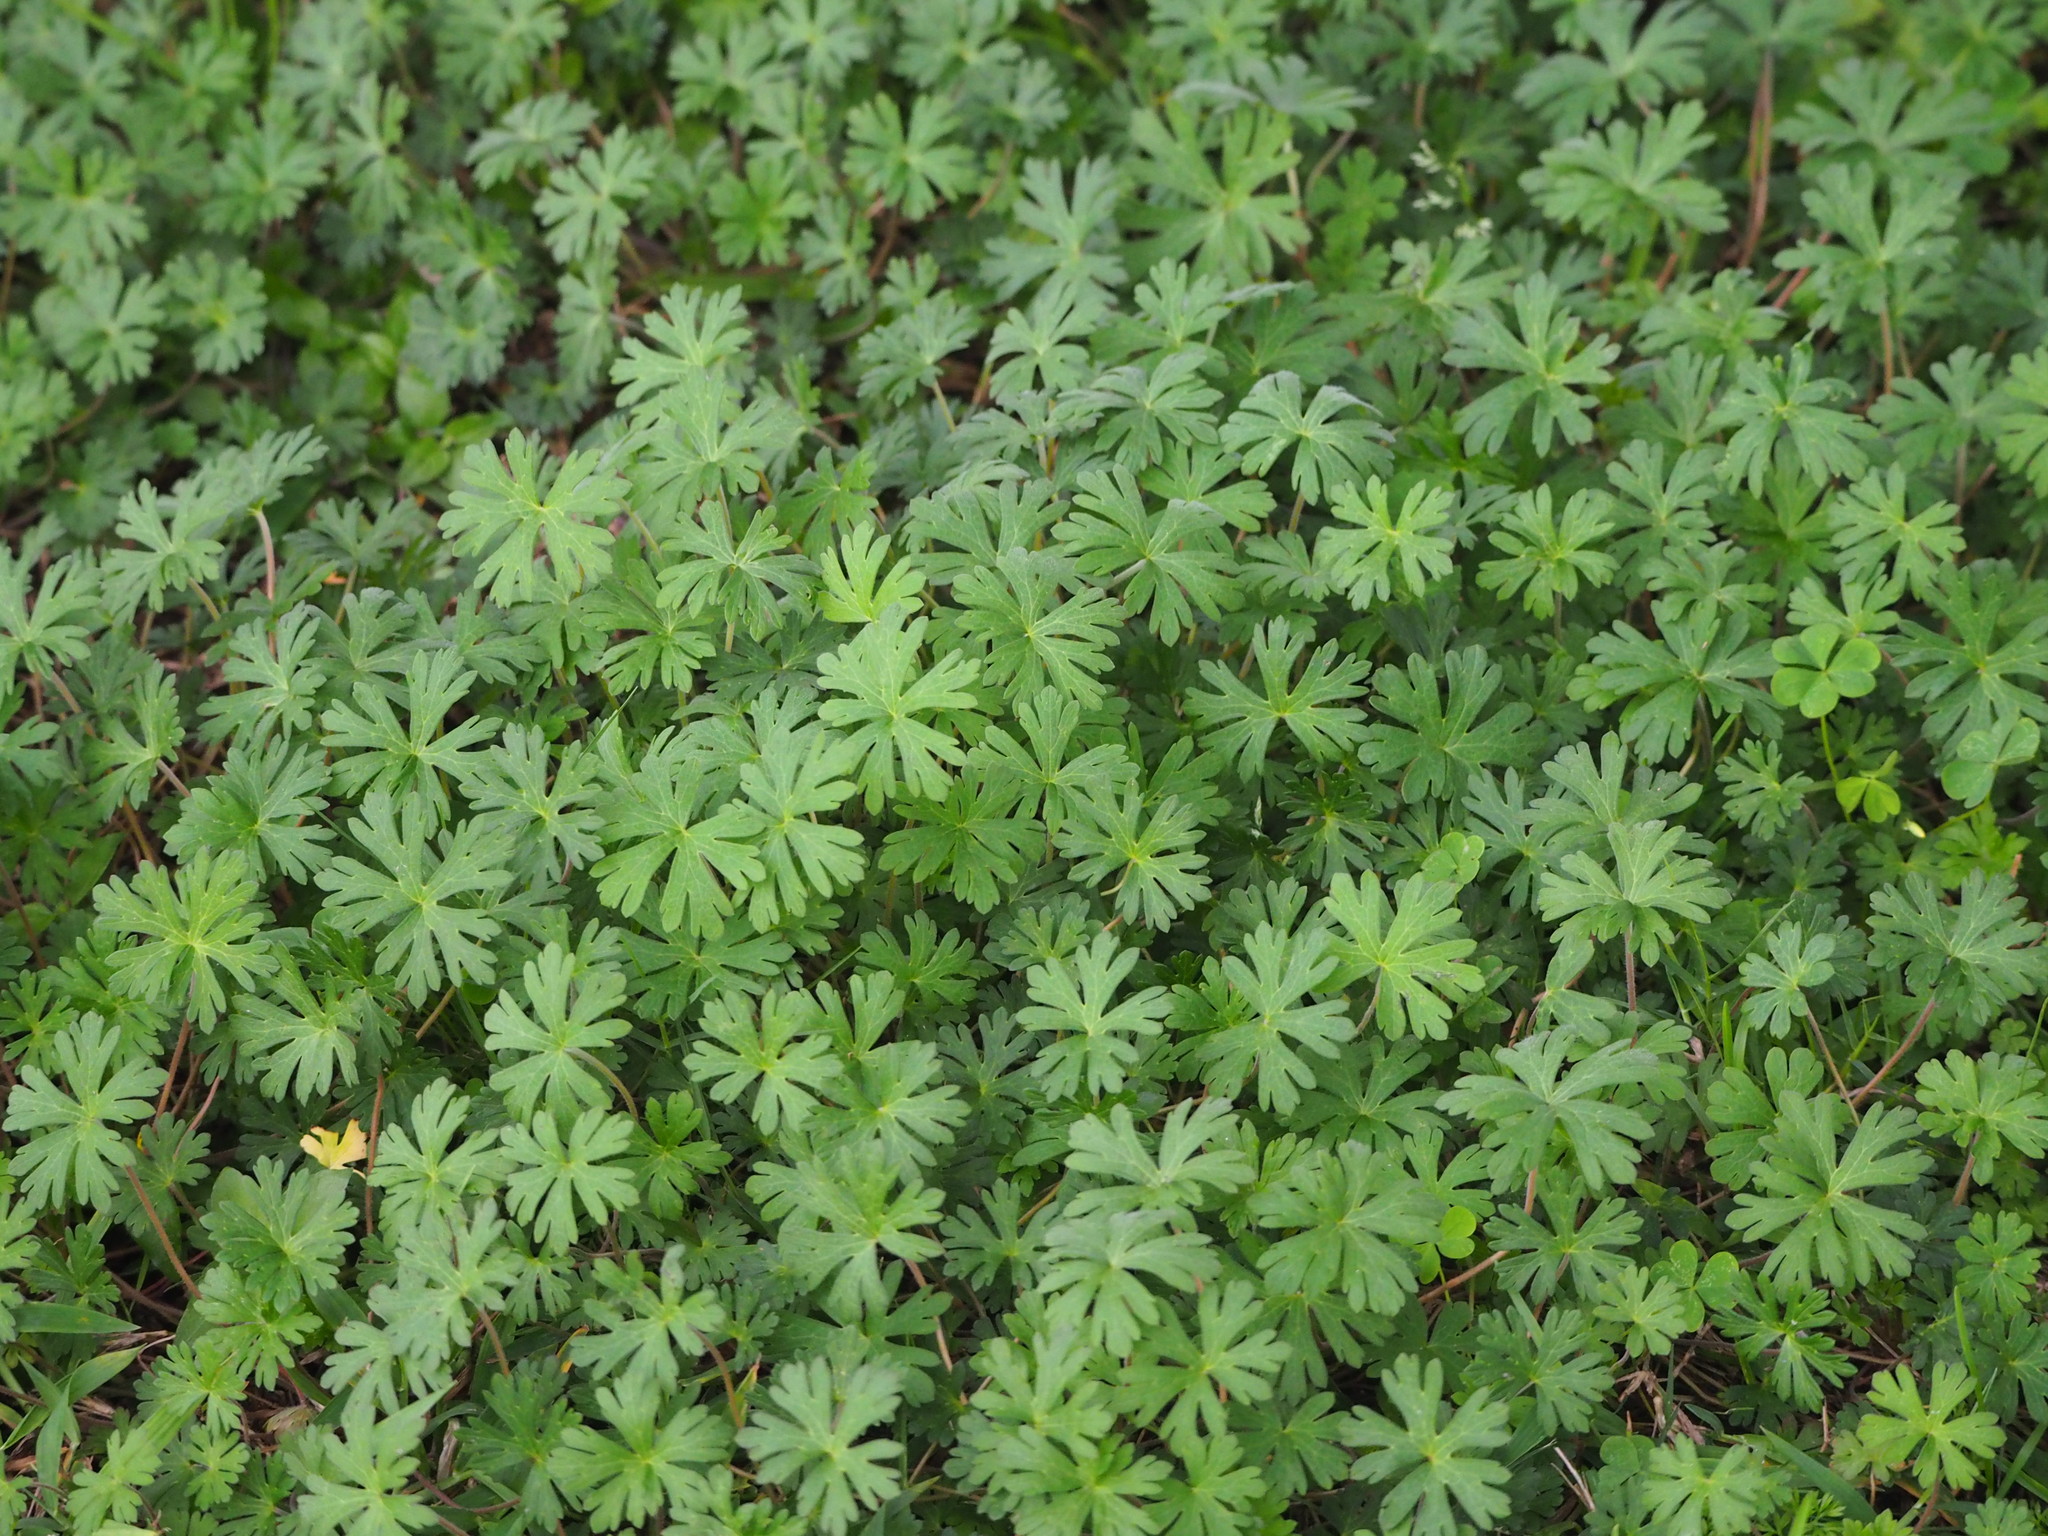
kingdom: Plantae
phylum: Tracheophyta
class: Magnoliopsida
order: Geraniales
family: Geraniaceae
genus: Geranium
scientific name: Geranium carolinianum
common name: Carolina crane's-bill
